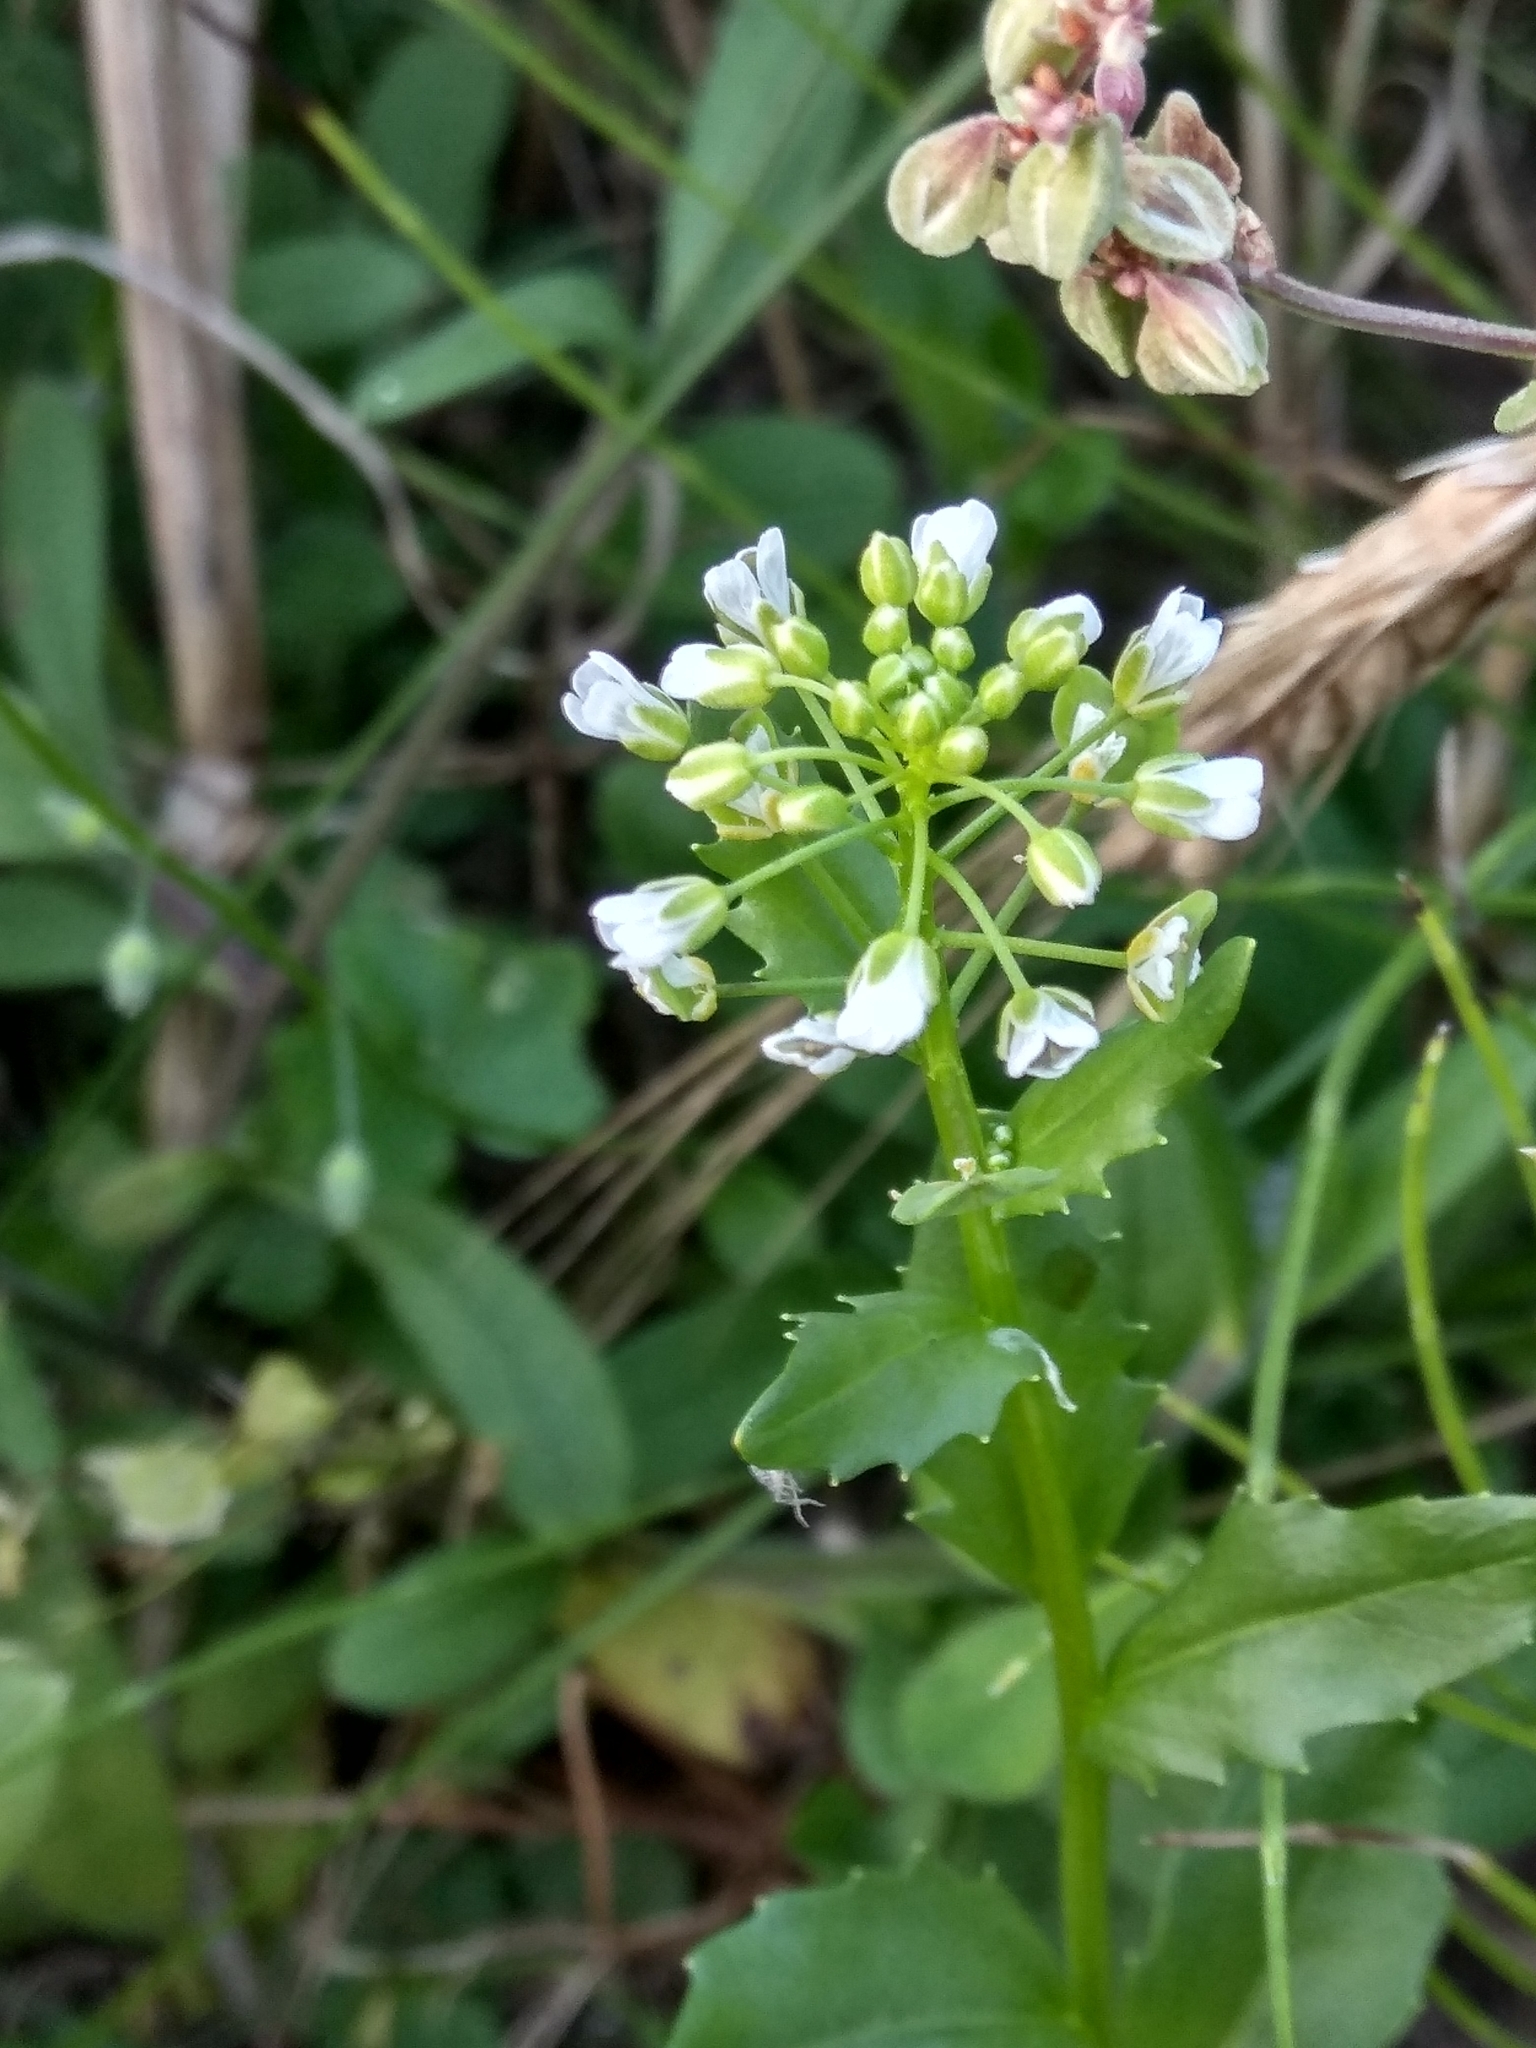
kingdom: Plantae
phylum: Tracheophyta
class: Magnoliopsida
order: Brassicales
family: Brassicaceae
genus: Thlaspi
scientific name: Thlaspi arvense
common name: Field pennycress
